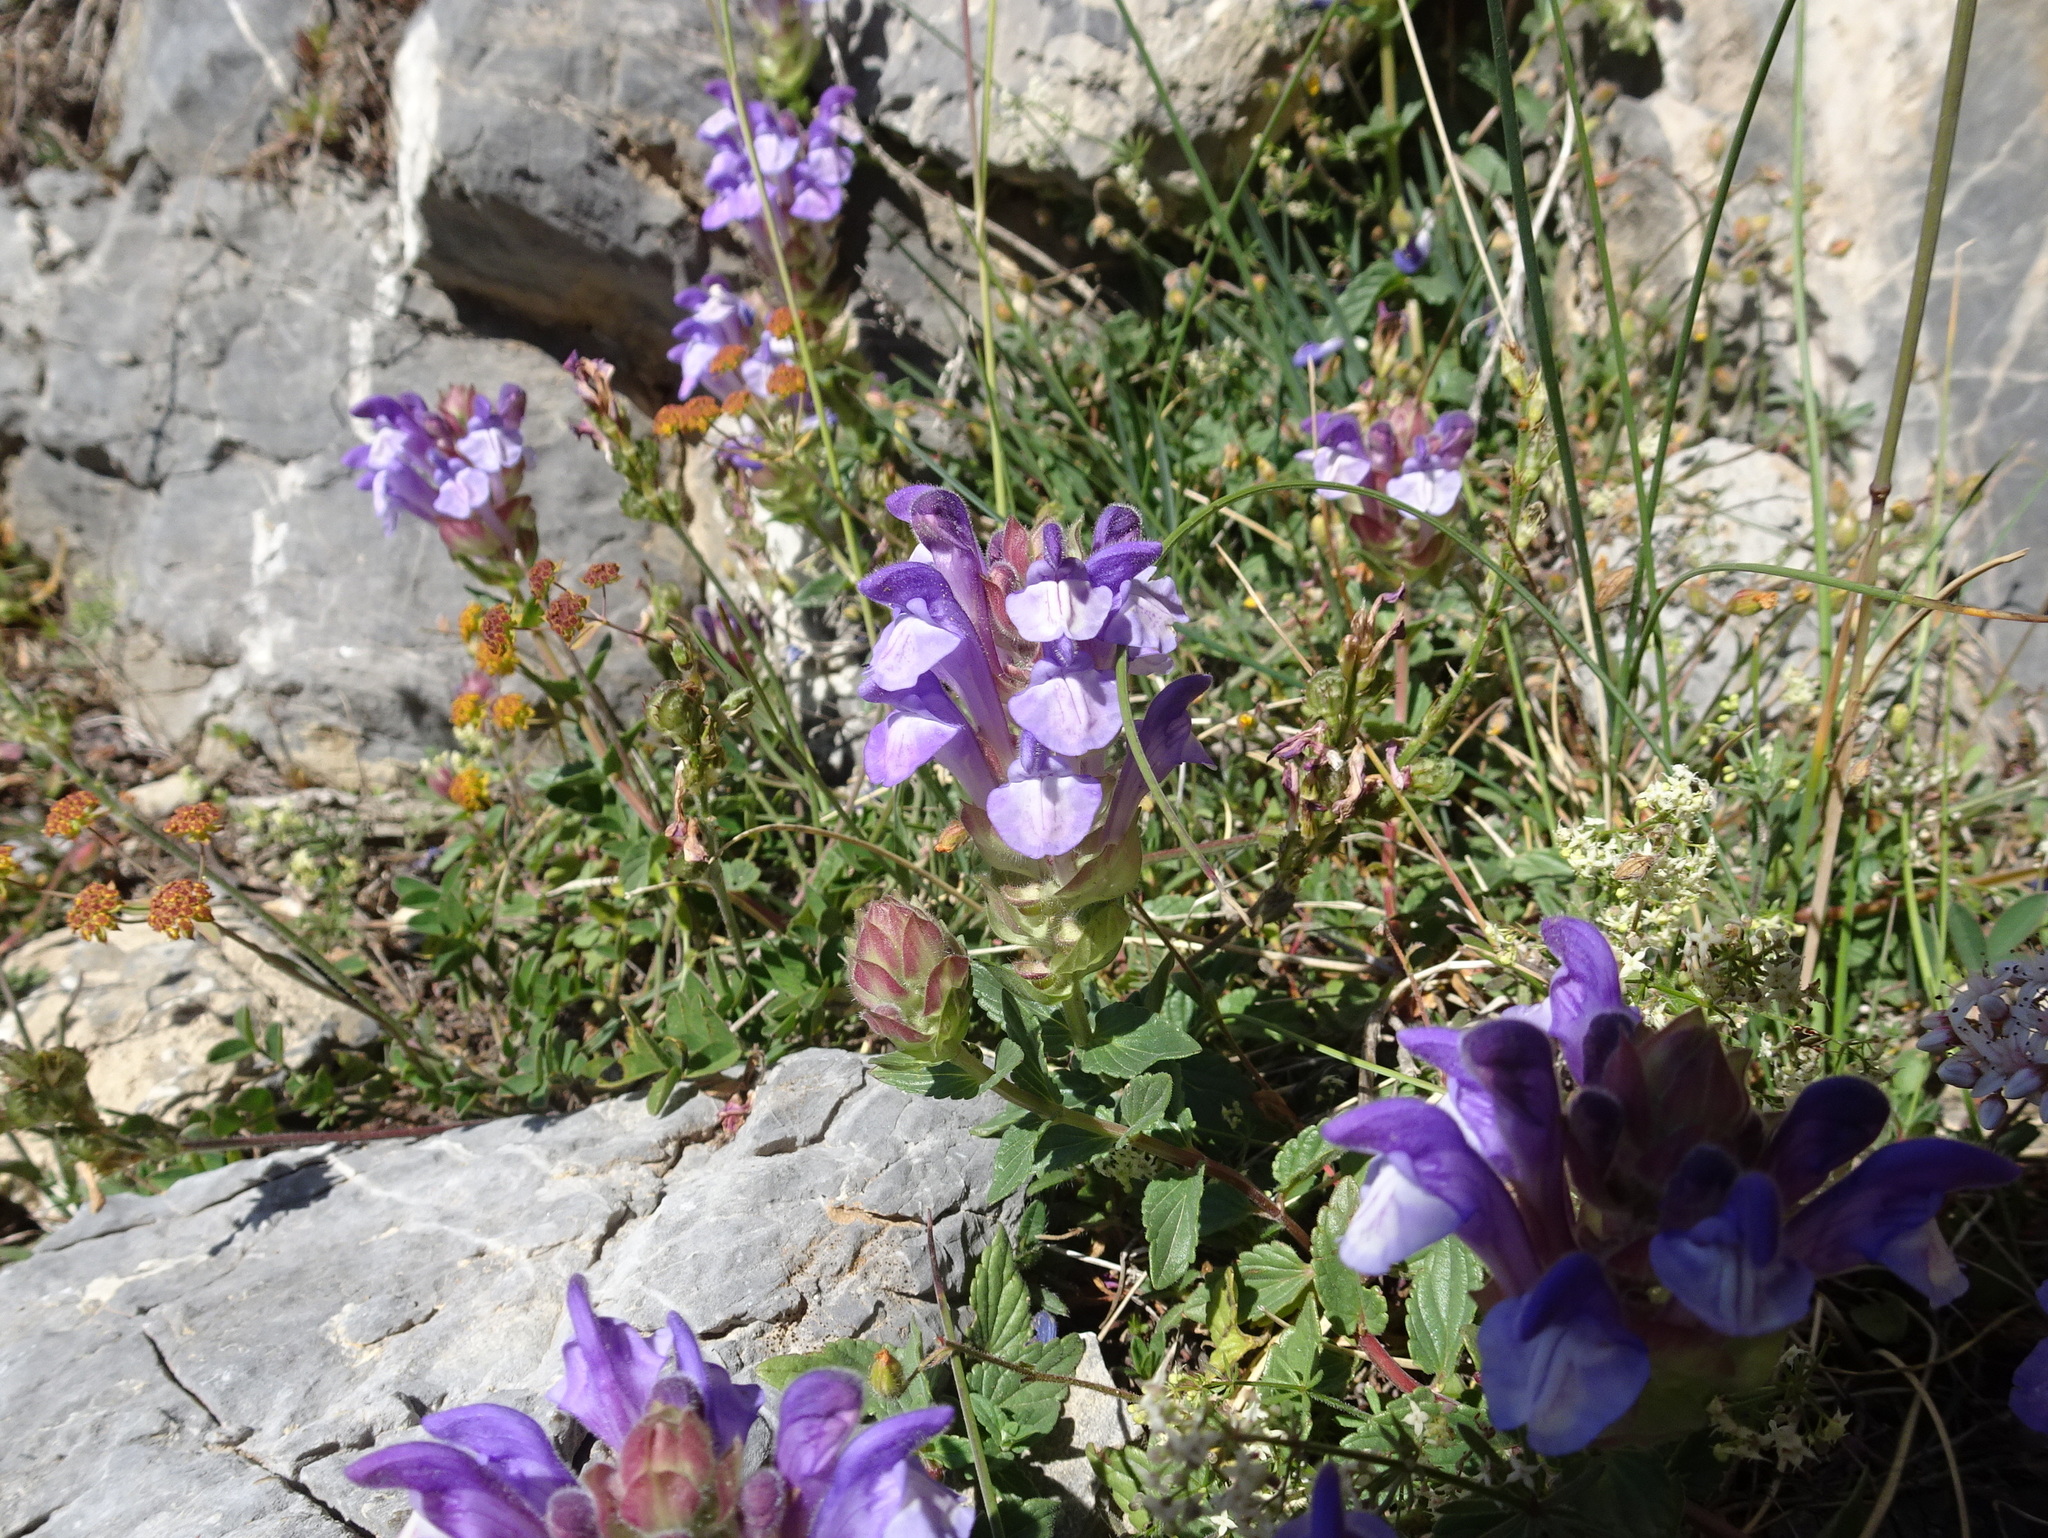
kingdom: Plantae
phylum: Tracheophyta
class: Magnoliopsida
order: Lamiales
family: Lamiaceae
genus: Scutellaria
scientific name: Scutellaria alpina
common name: Alpine scullcap
